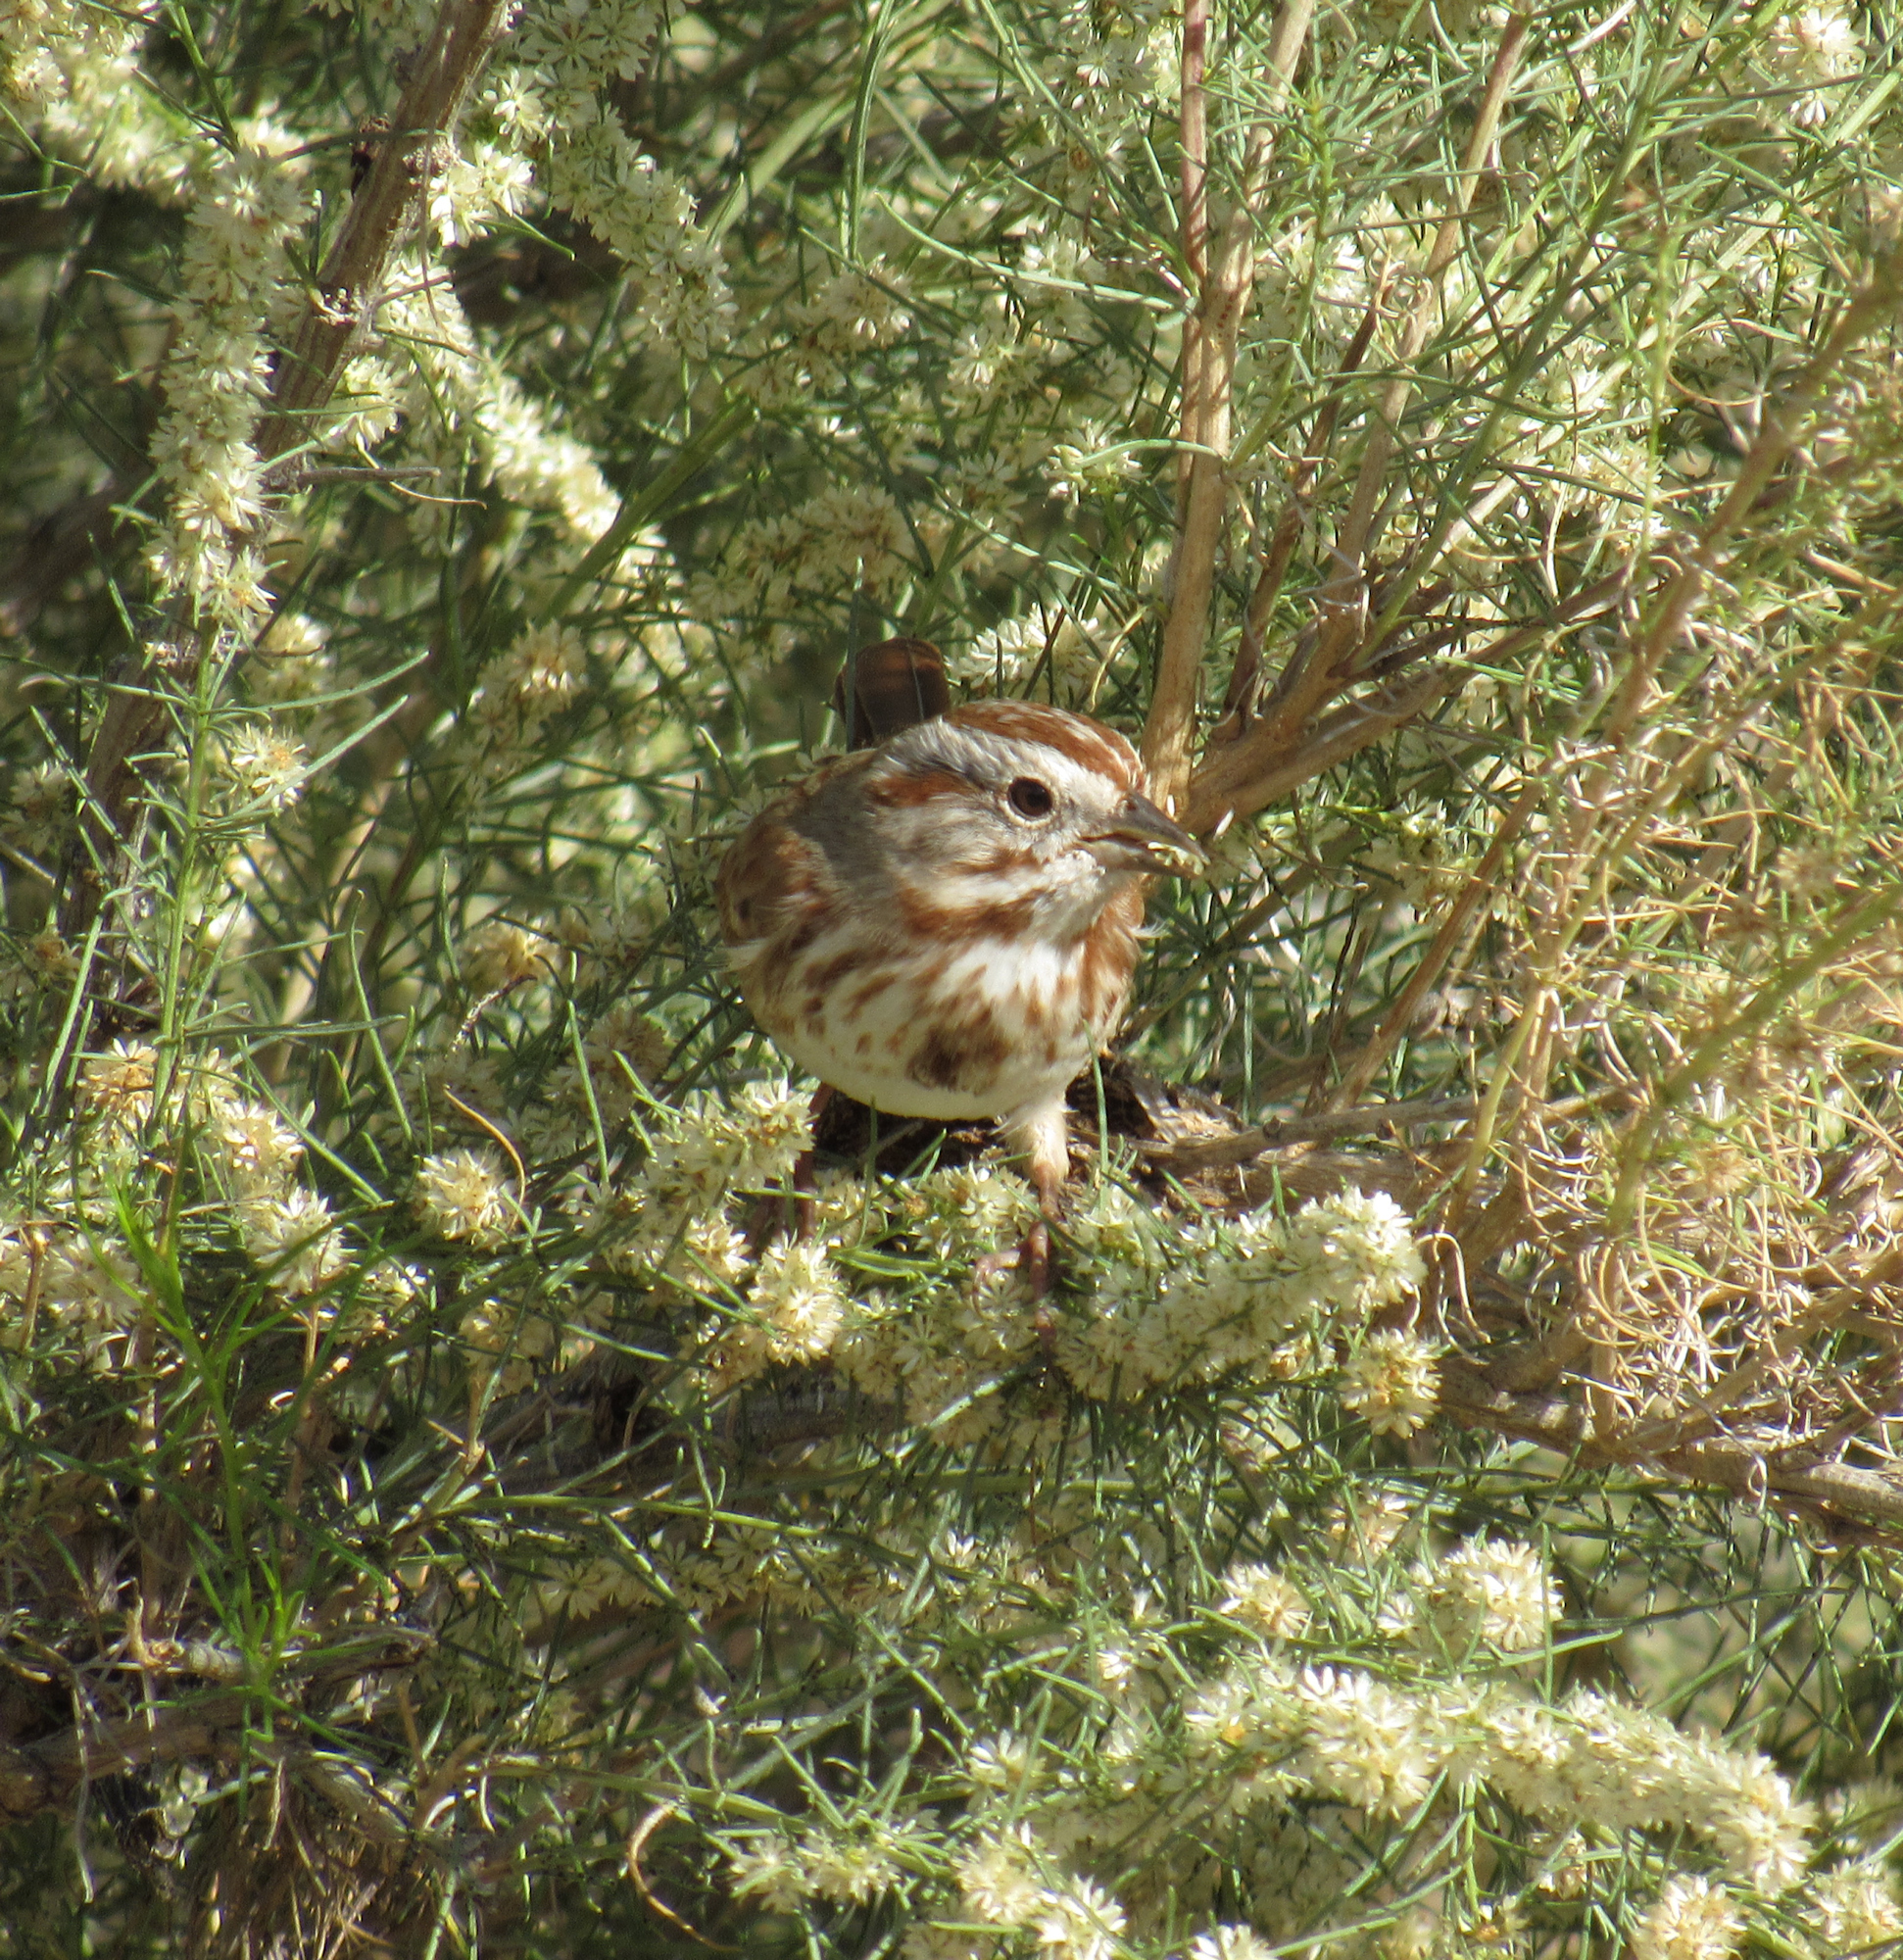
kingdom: Animalia
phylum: Chordata
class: Aves
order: Passeriformes
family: Passerellidae
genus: Melospiza
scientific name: Melospiza melodia
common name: Song sparrow
